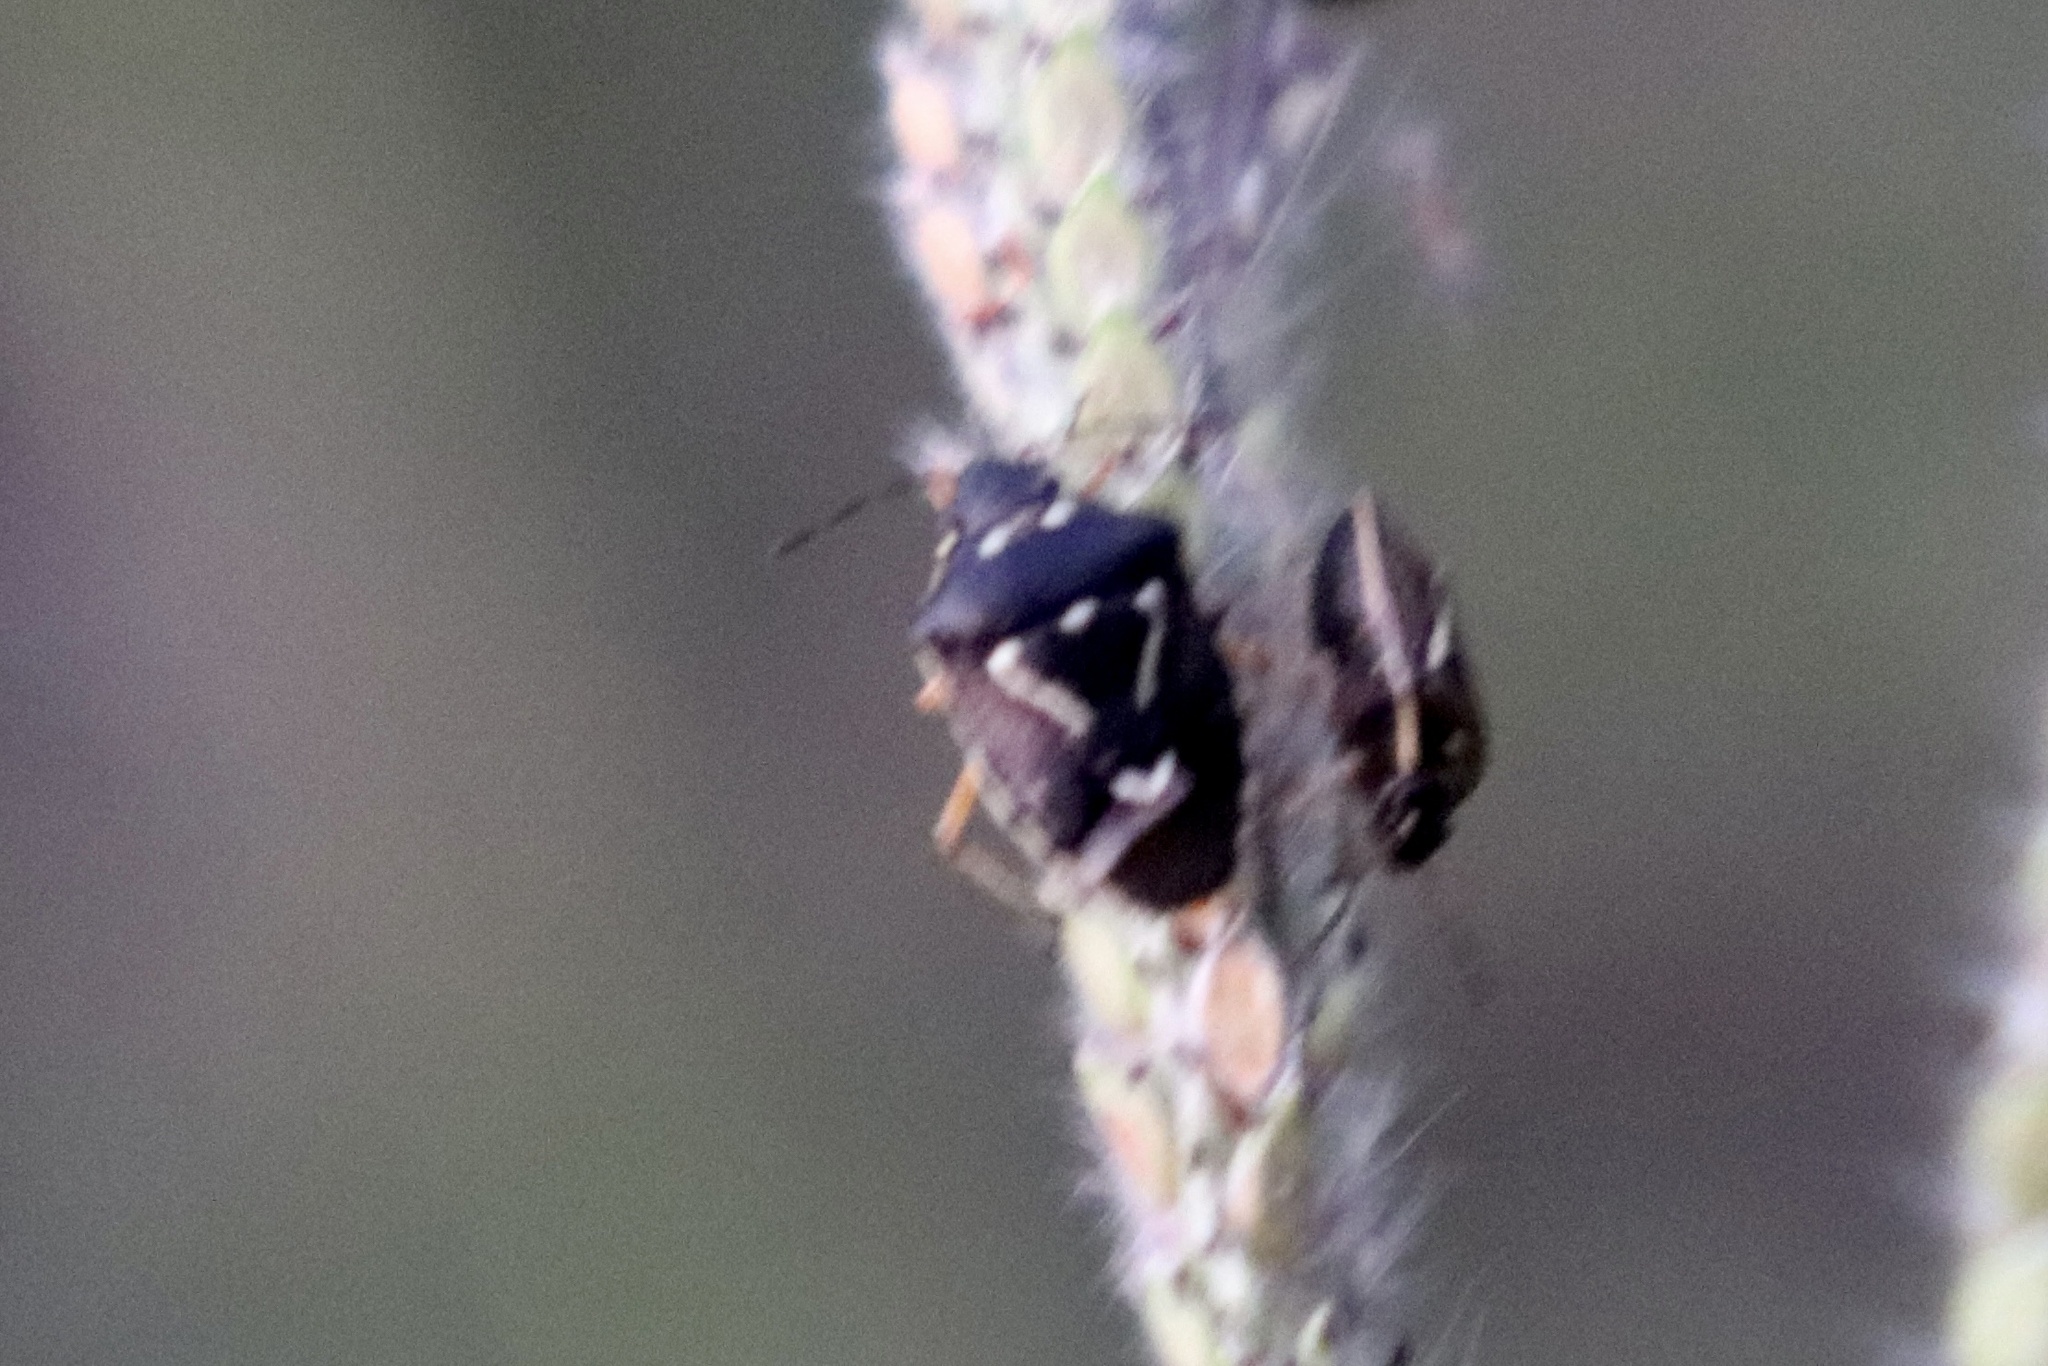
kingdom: Animalia
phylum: Arthropoda
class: Insecta
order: Hemiptera
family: Pentatomidae
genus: Mormidea
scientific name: Mormidea pama
